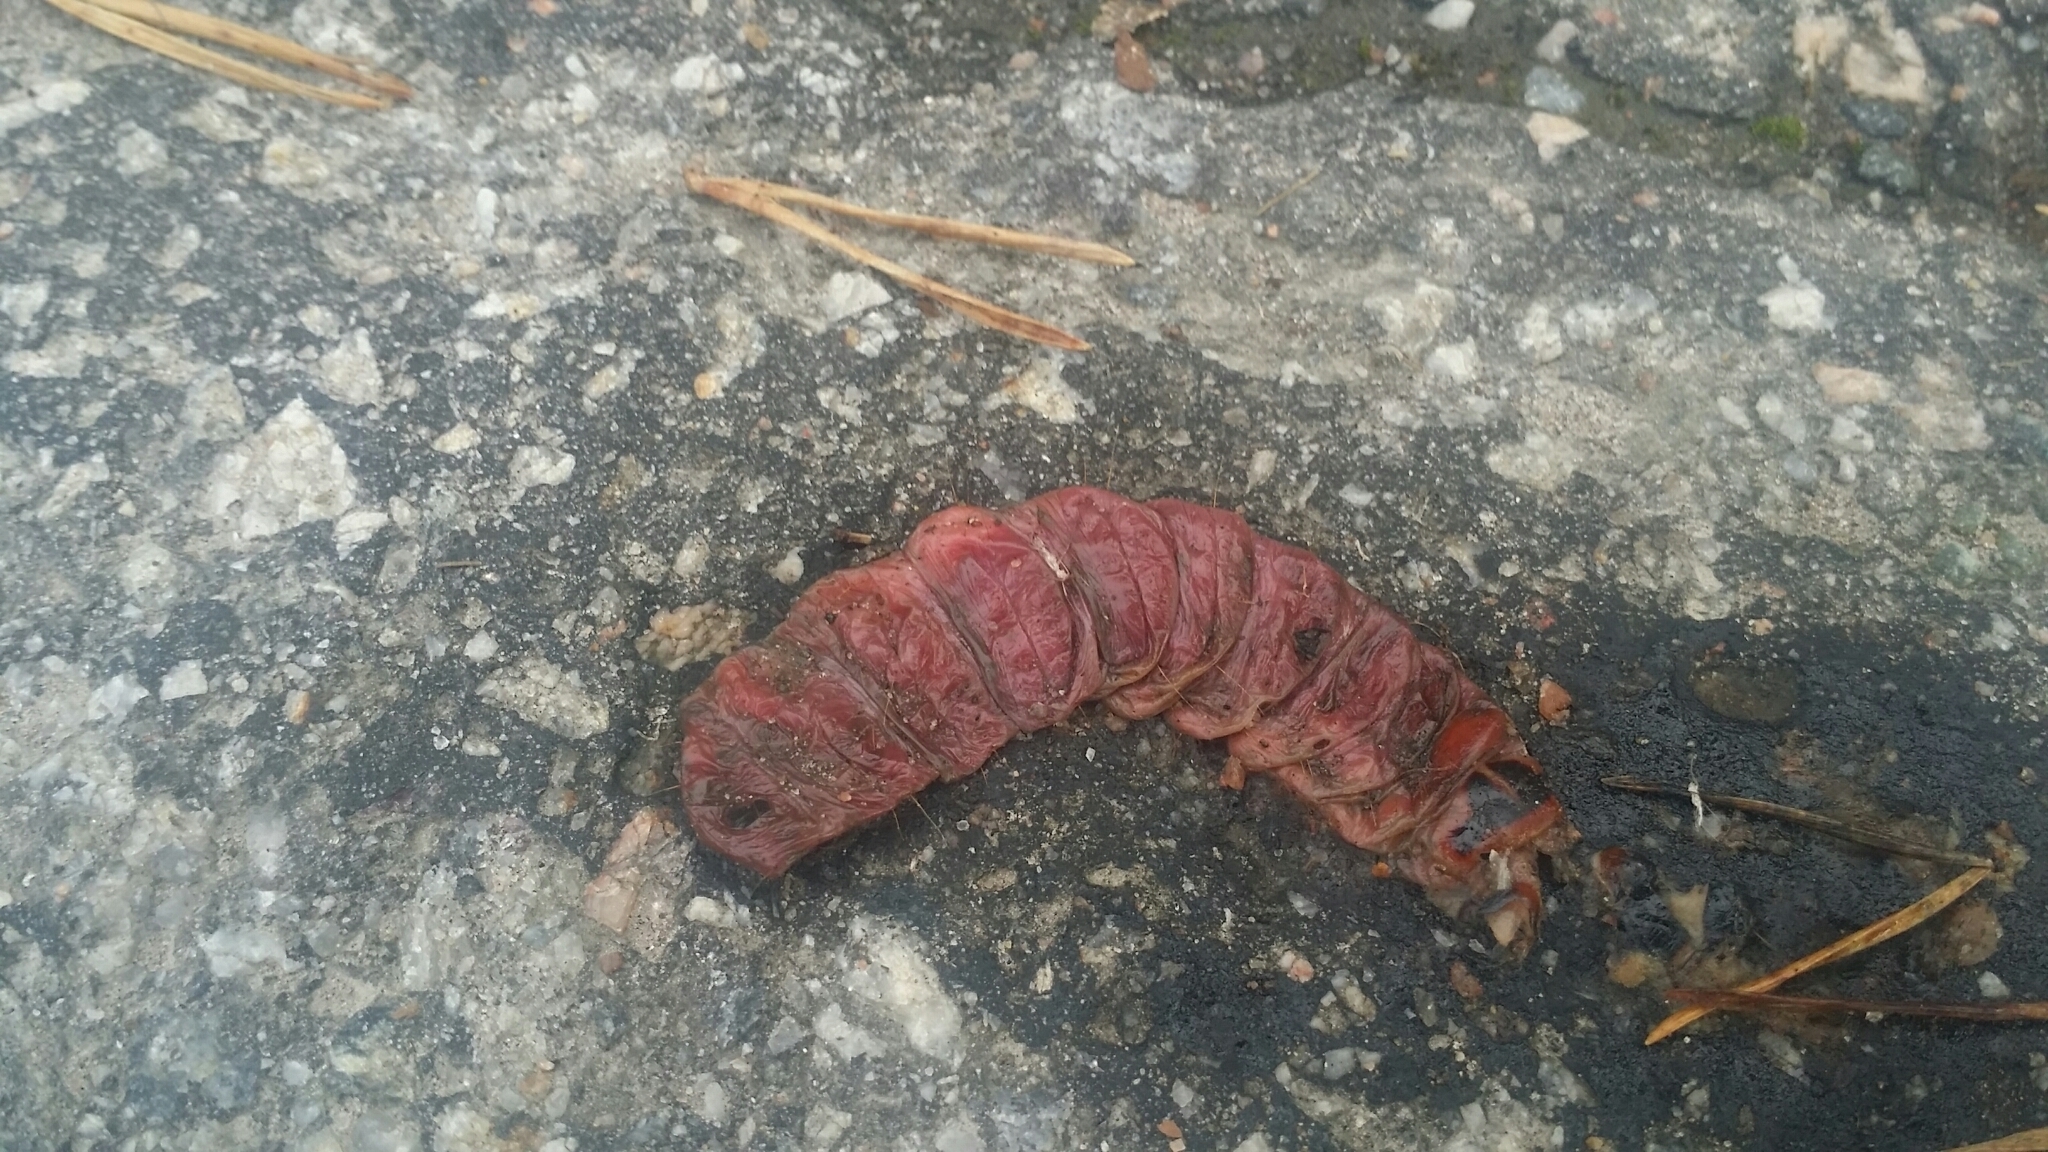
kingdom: Animalia
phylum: Arthropoda
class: Insecta
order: Lepidoptera
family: Cossidae
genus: Cossus
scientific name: Cossus cossus
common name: Goat moth
